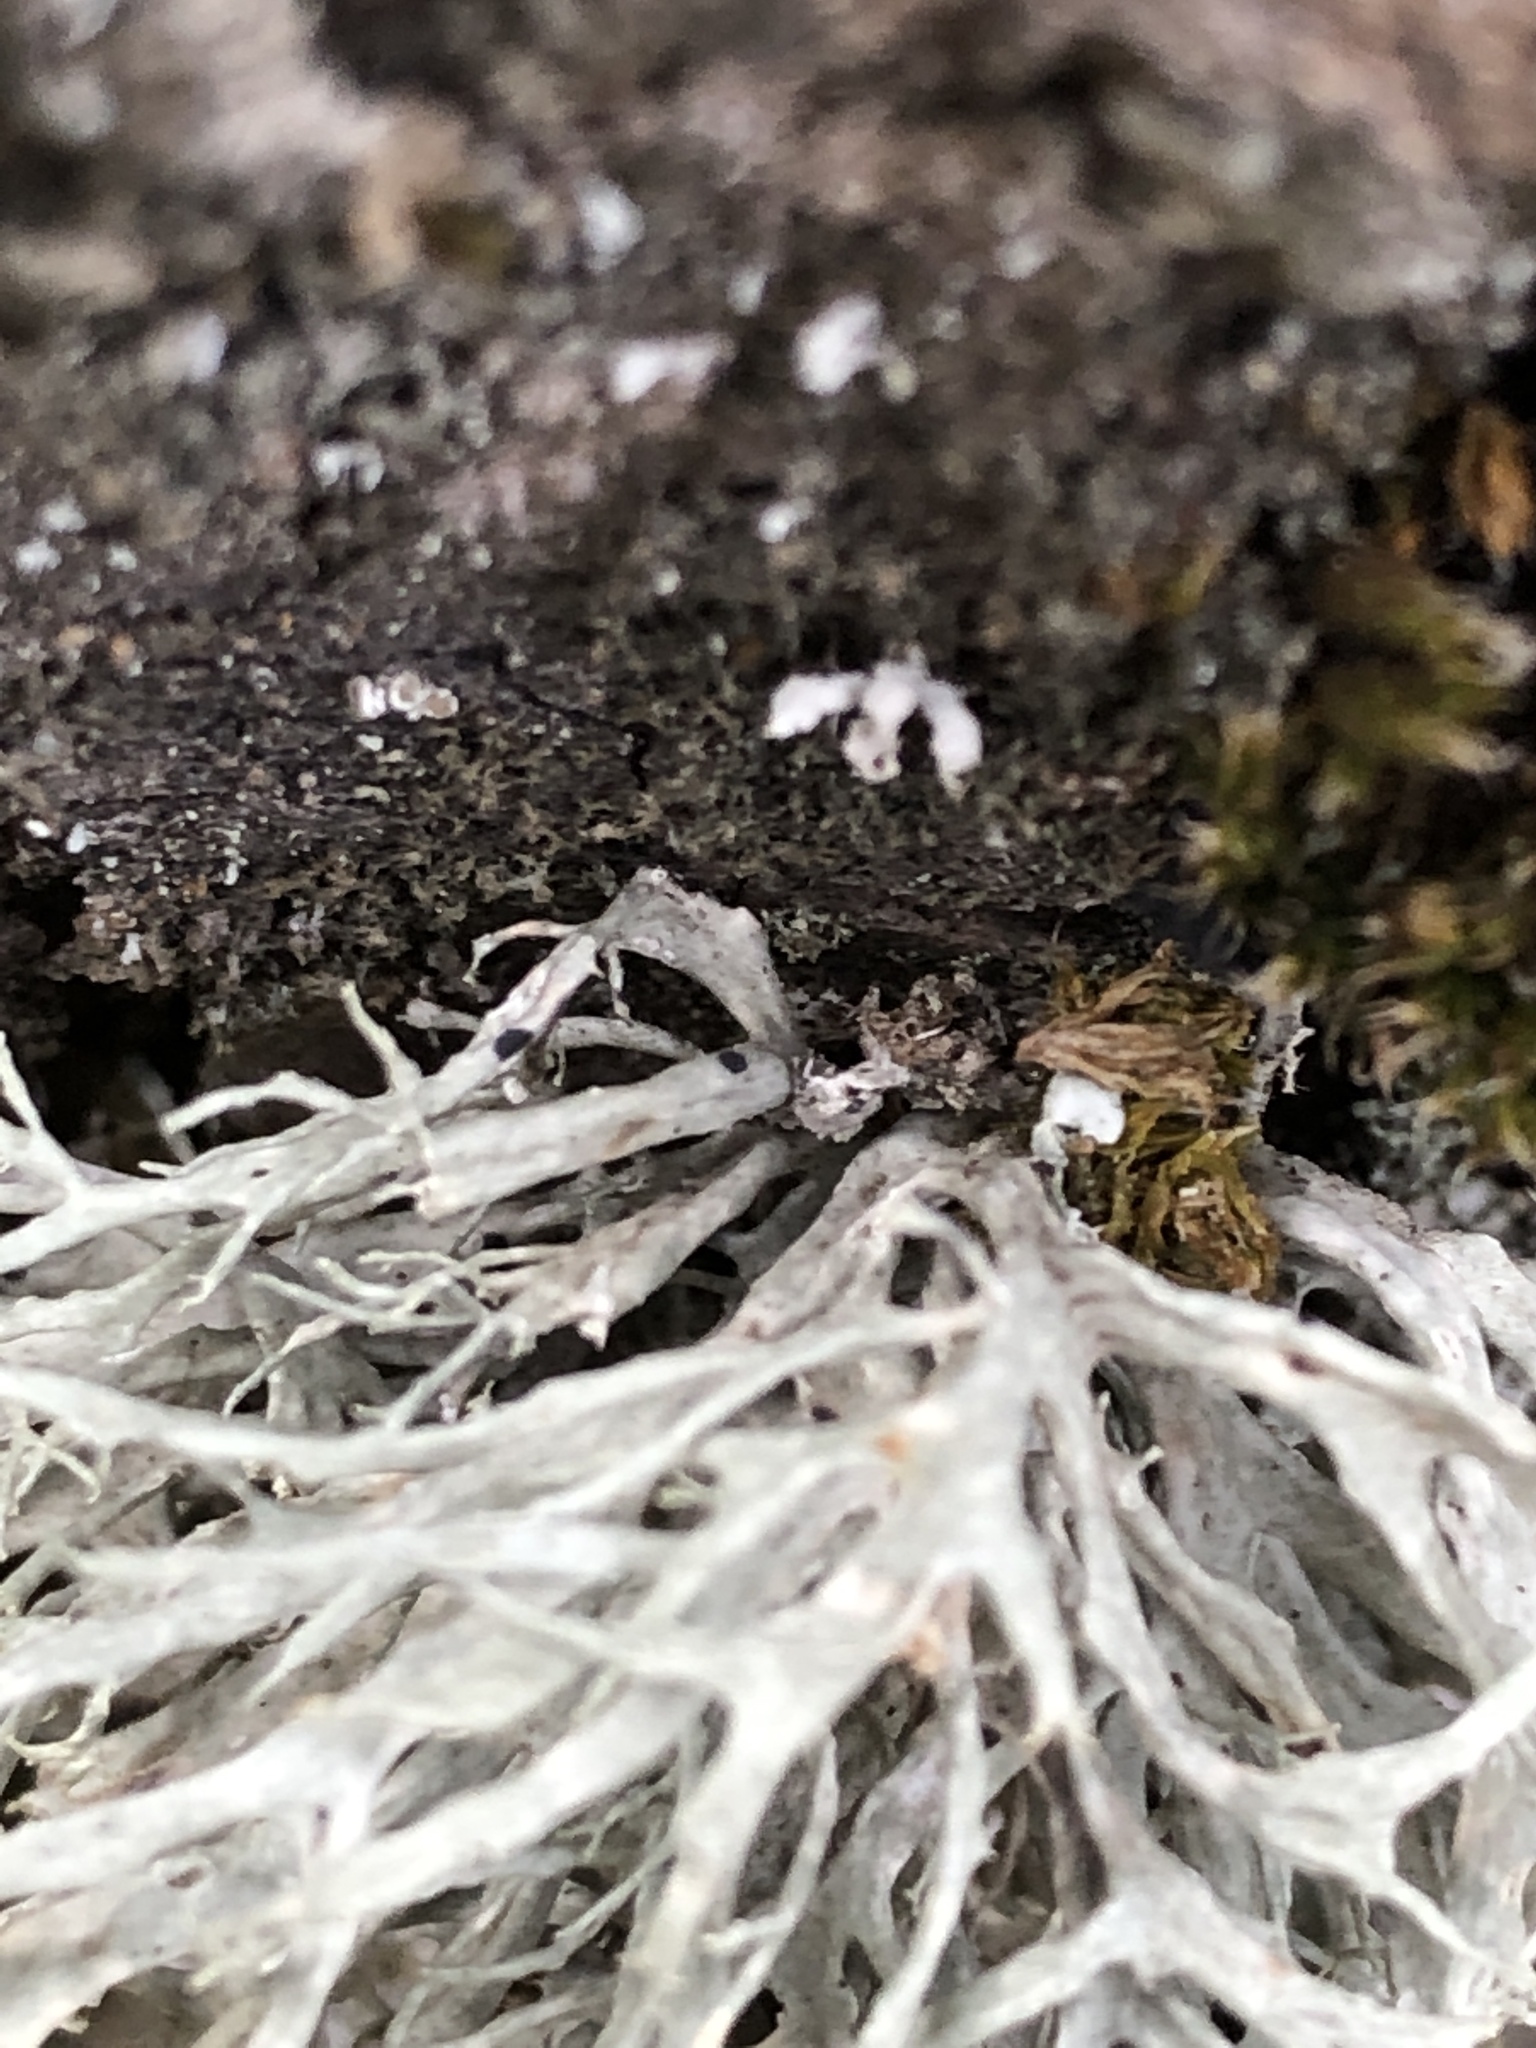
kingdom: Fungi
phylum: Ascomycota
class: Lecanoromycetes
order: Lecanorales
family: Ramalinaceae
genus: Ramalina
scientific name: Ramalina farinacea
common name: Farinose cartilage lichen
